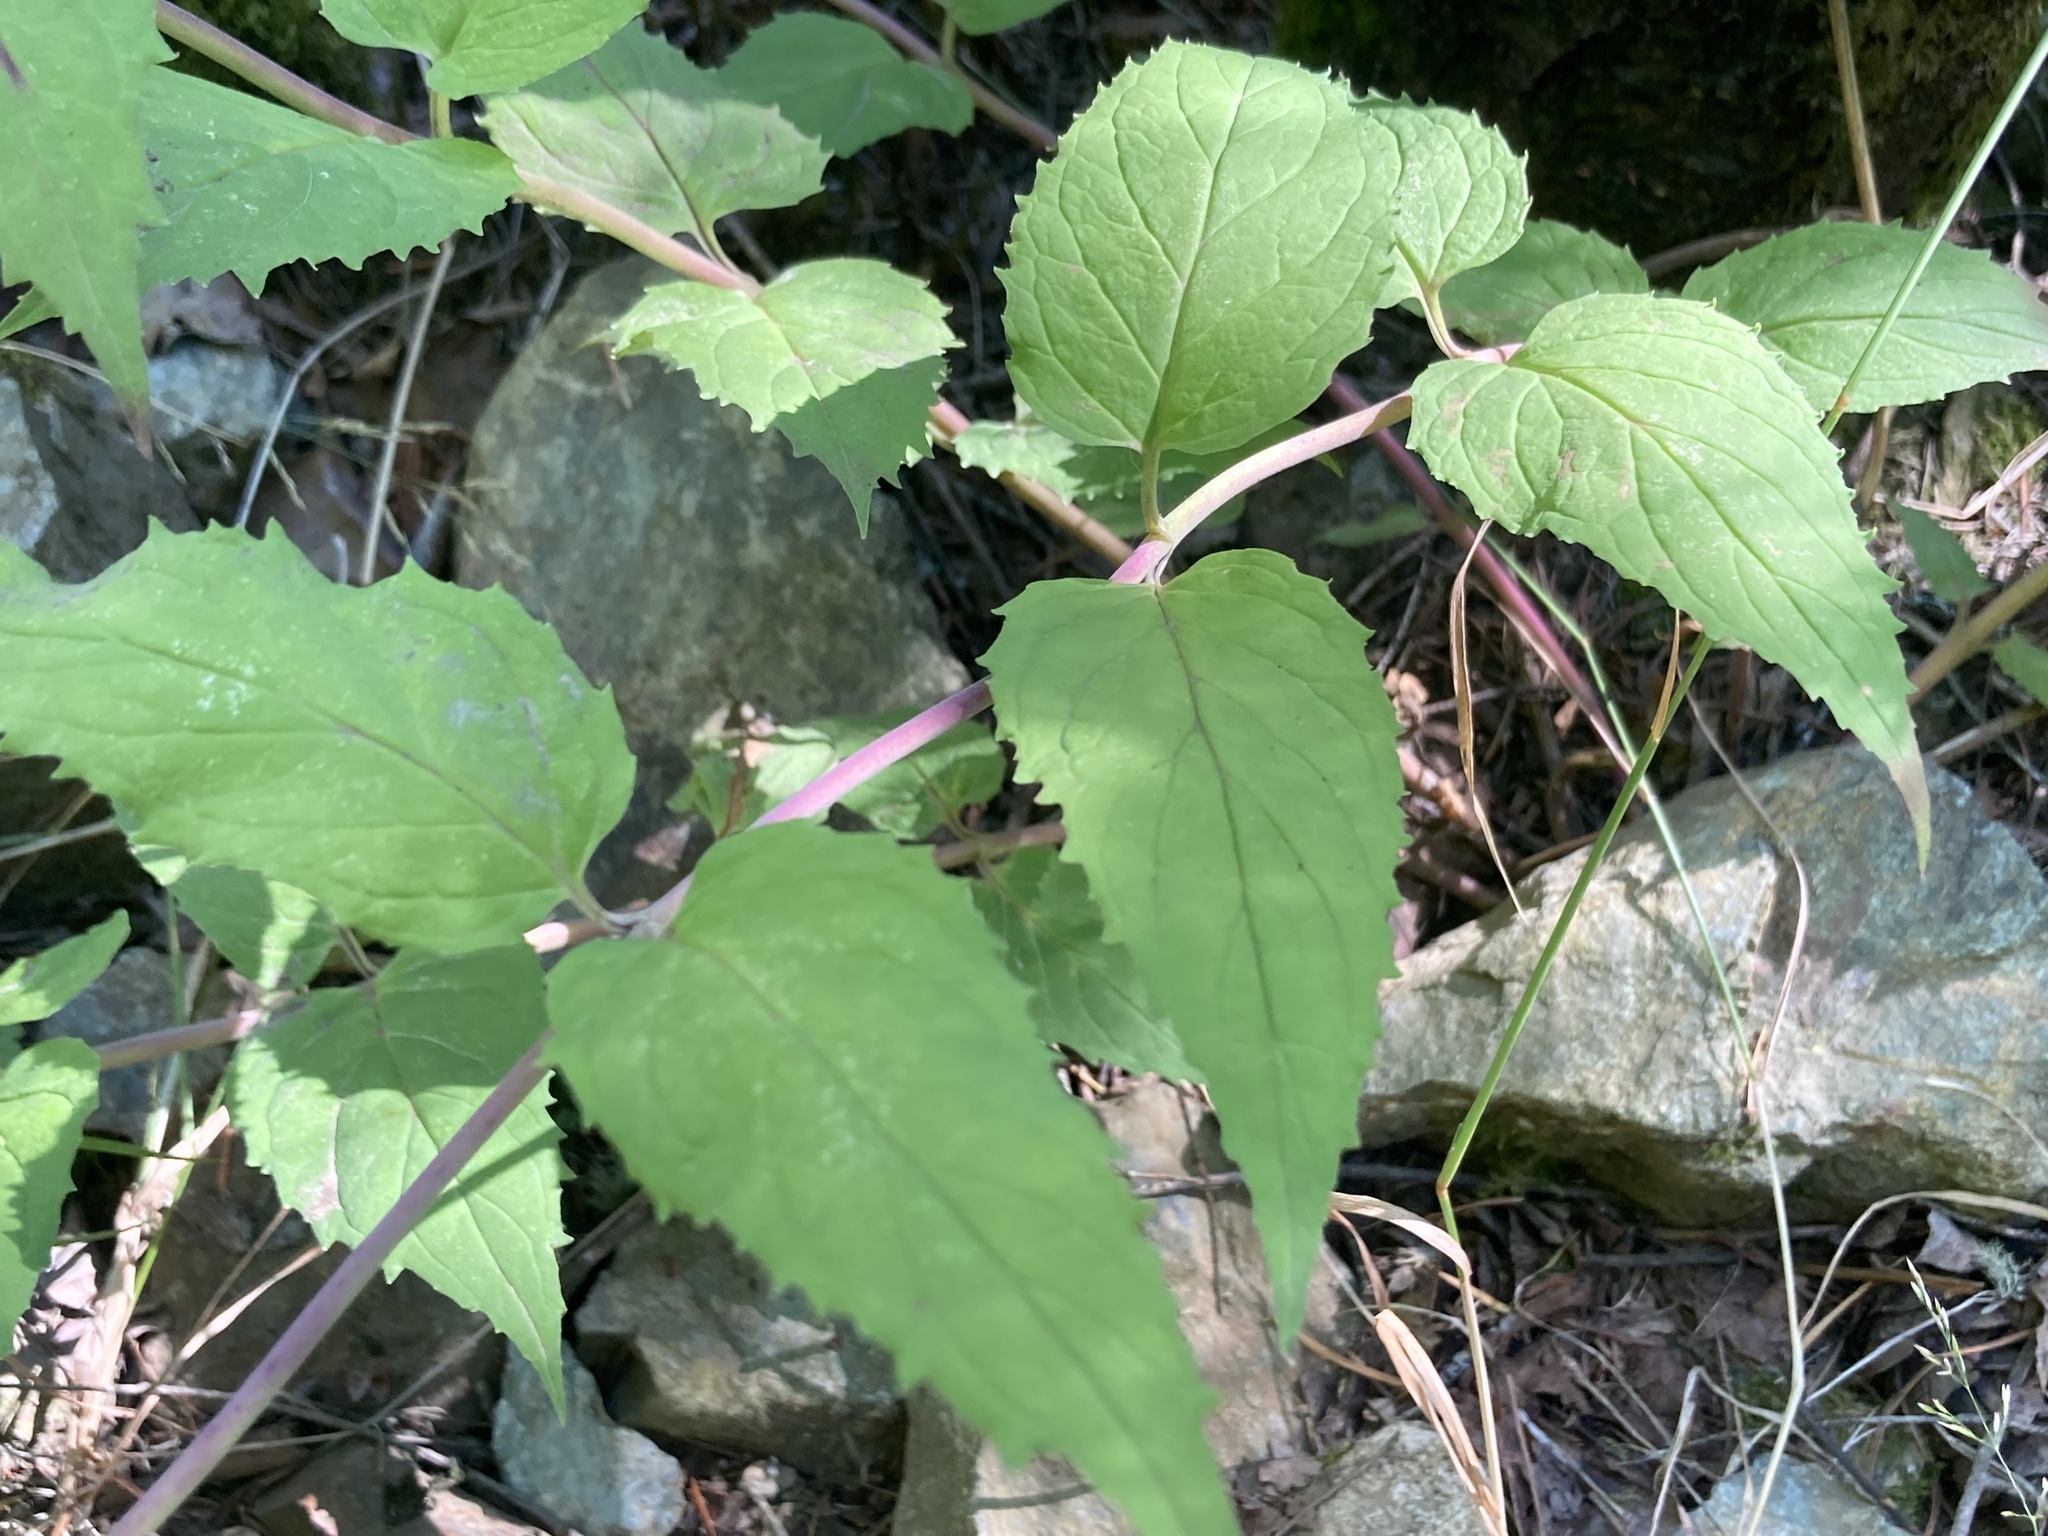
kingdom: Plantae
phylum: Tracheophyta
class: Magnoliopsida
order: Lamiales
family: Plantaginaceae
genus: Nothochelone
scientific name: Nothochelone nemorosa
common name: Woodland beardtongue
